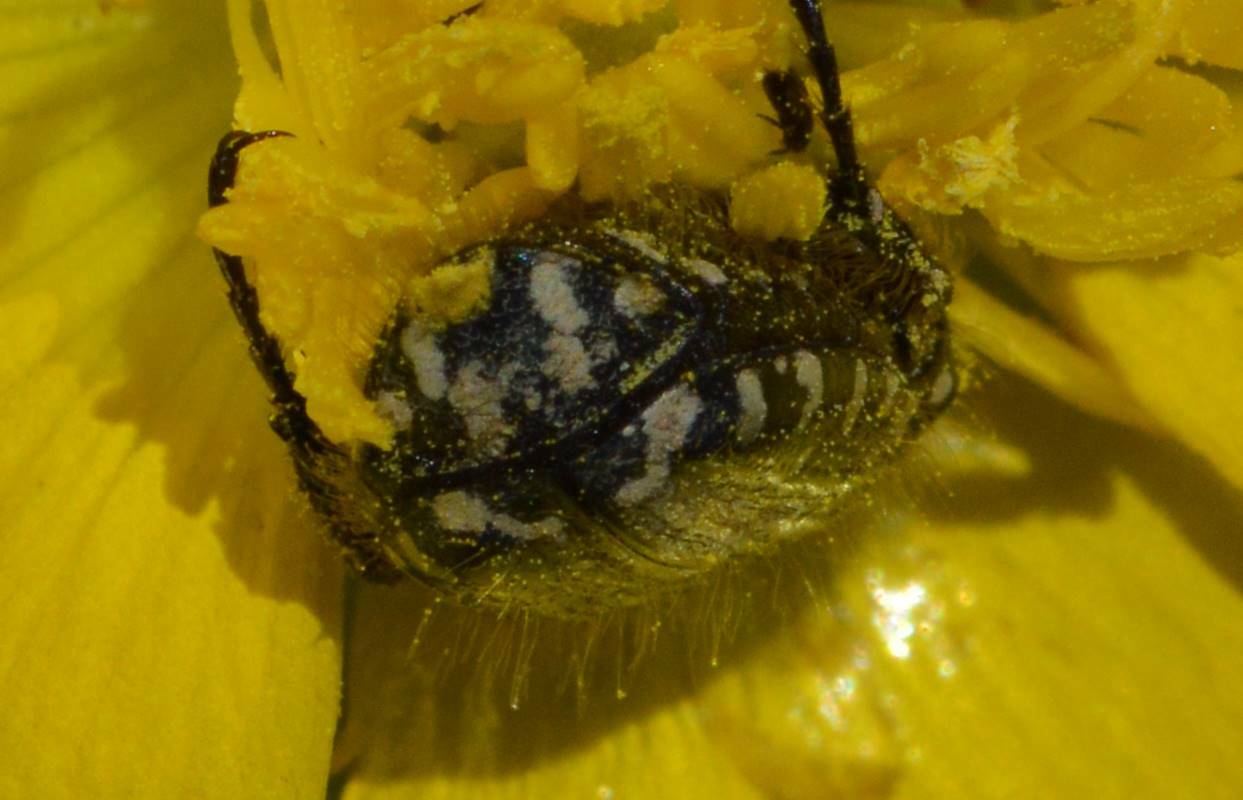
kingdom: Animalia
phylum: Arthropoda
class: Insecta
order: Coleoptera
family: Scarabaeidae
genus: Oxythyrea
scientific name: Oxythyrea funesta
